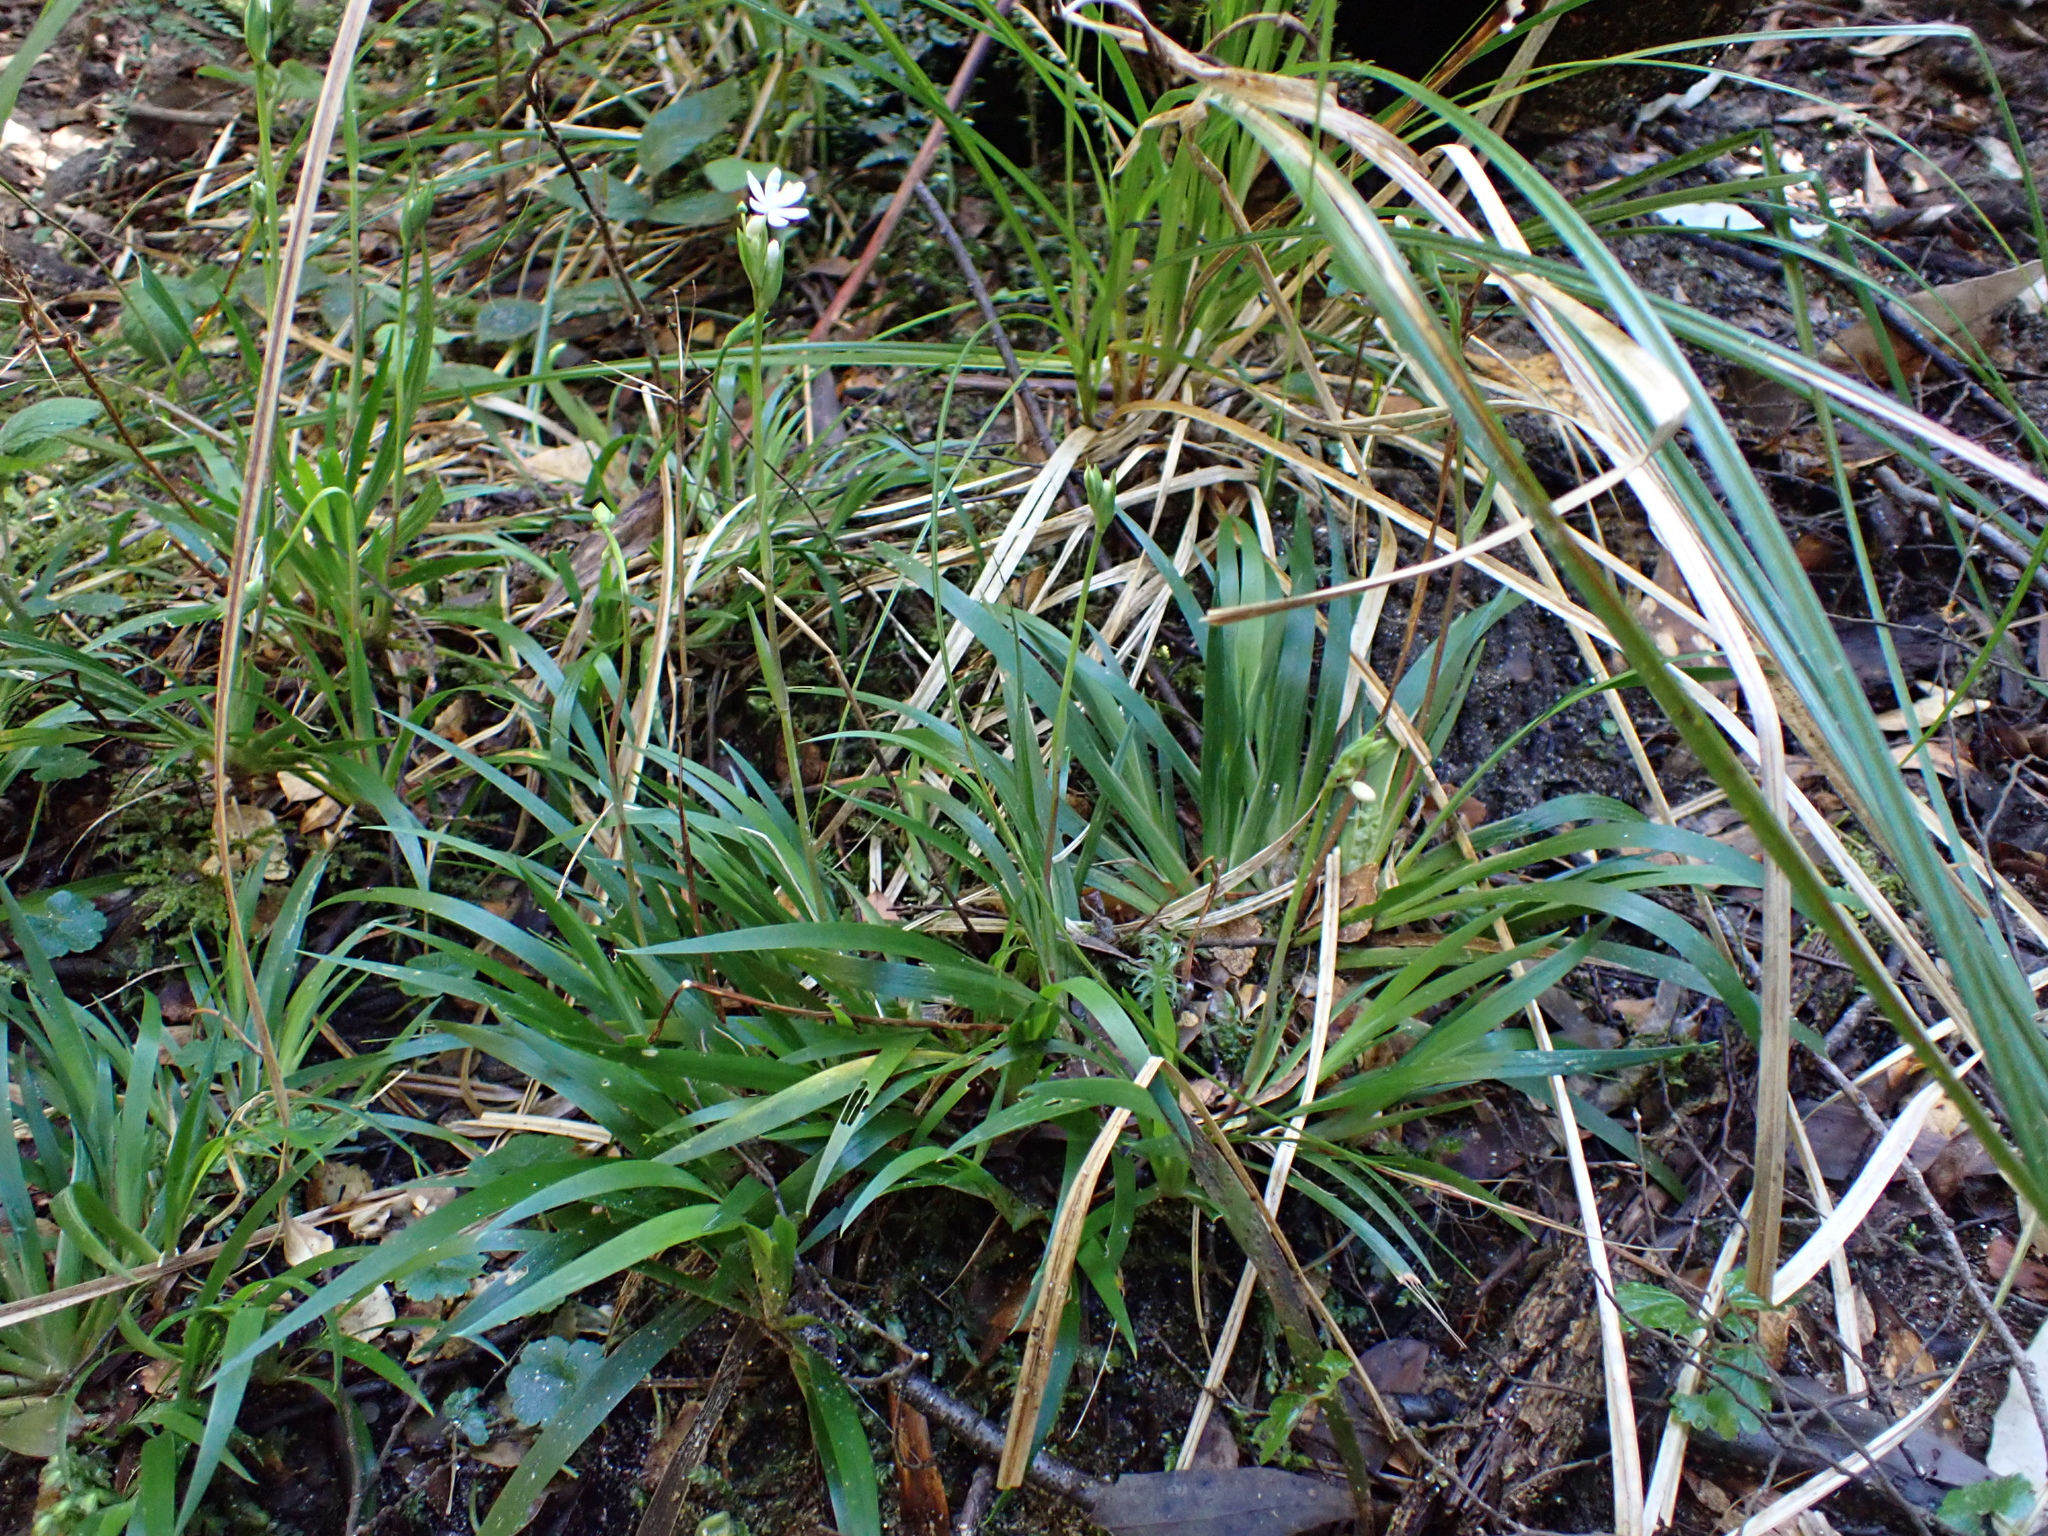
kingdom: Plantae
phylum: Tracheophyta
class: Liliopsida
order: Asparagales
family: Iridaceae
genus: Libertia
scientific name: Libertia pulchella
